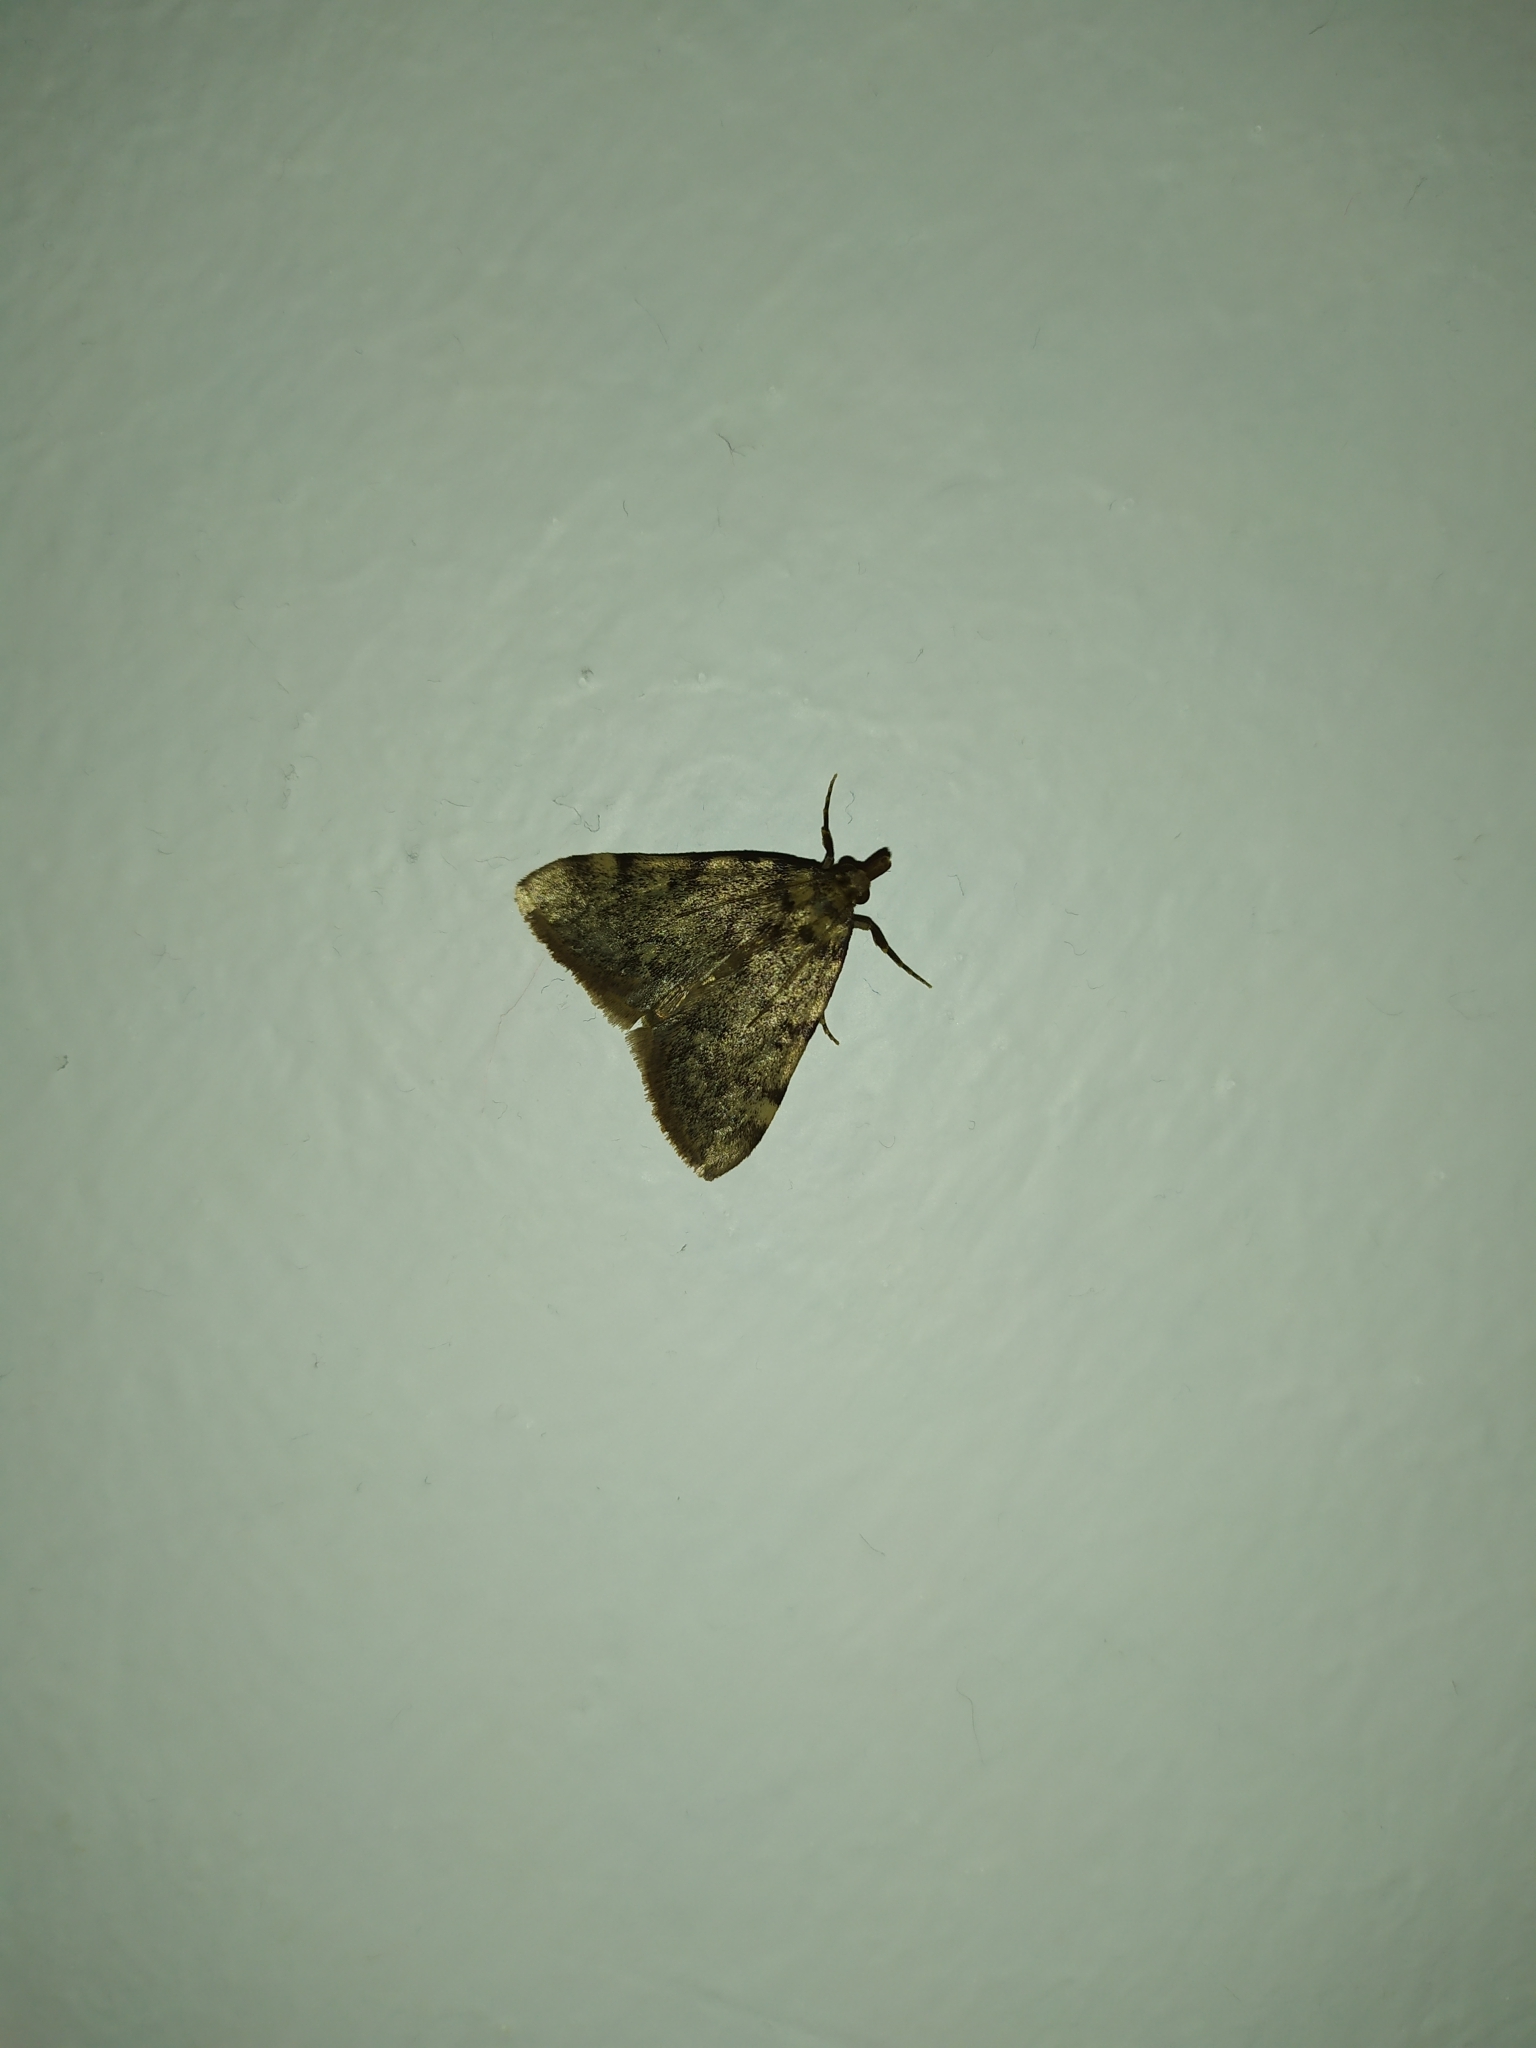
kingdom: Animalia
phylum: Arthropoda
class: Insecta
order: Lepidoptera
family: Pyralidae
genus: Aglossa
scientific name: Aglossa pinguinalis
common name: Large tabby
